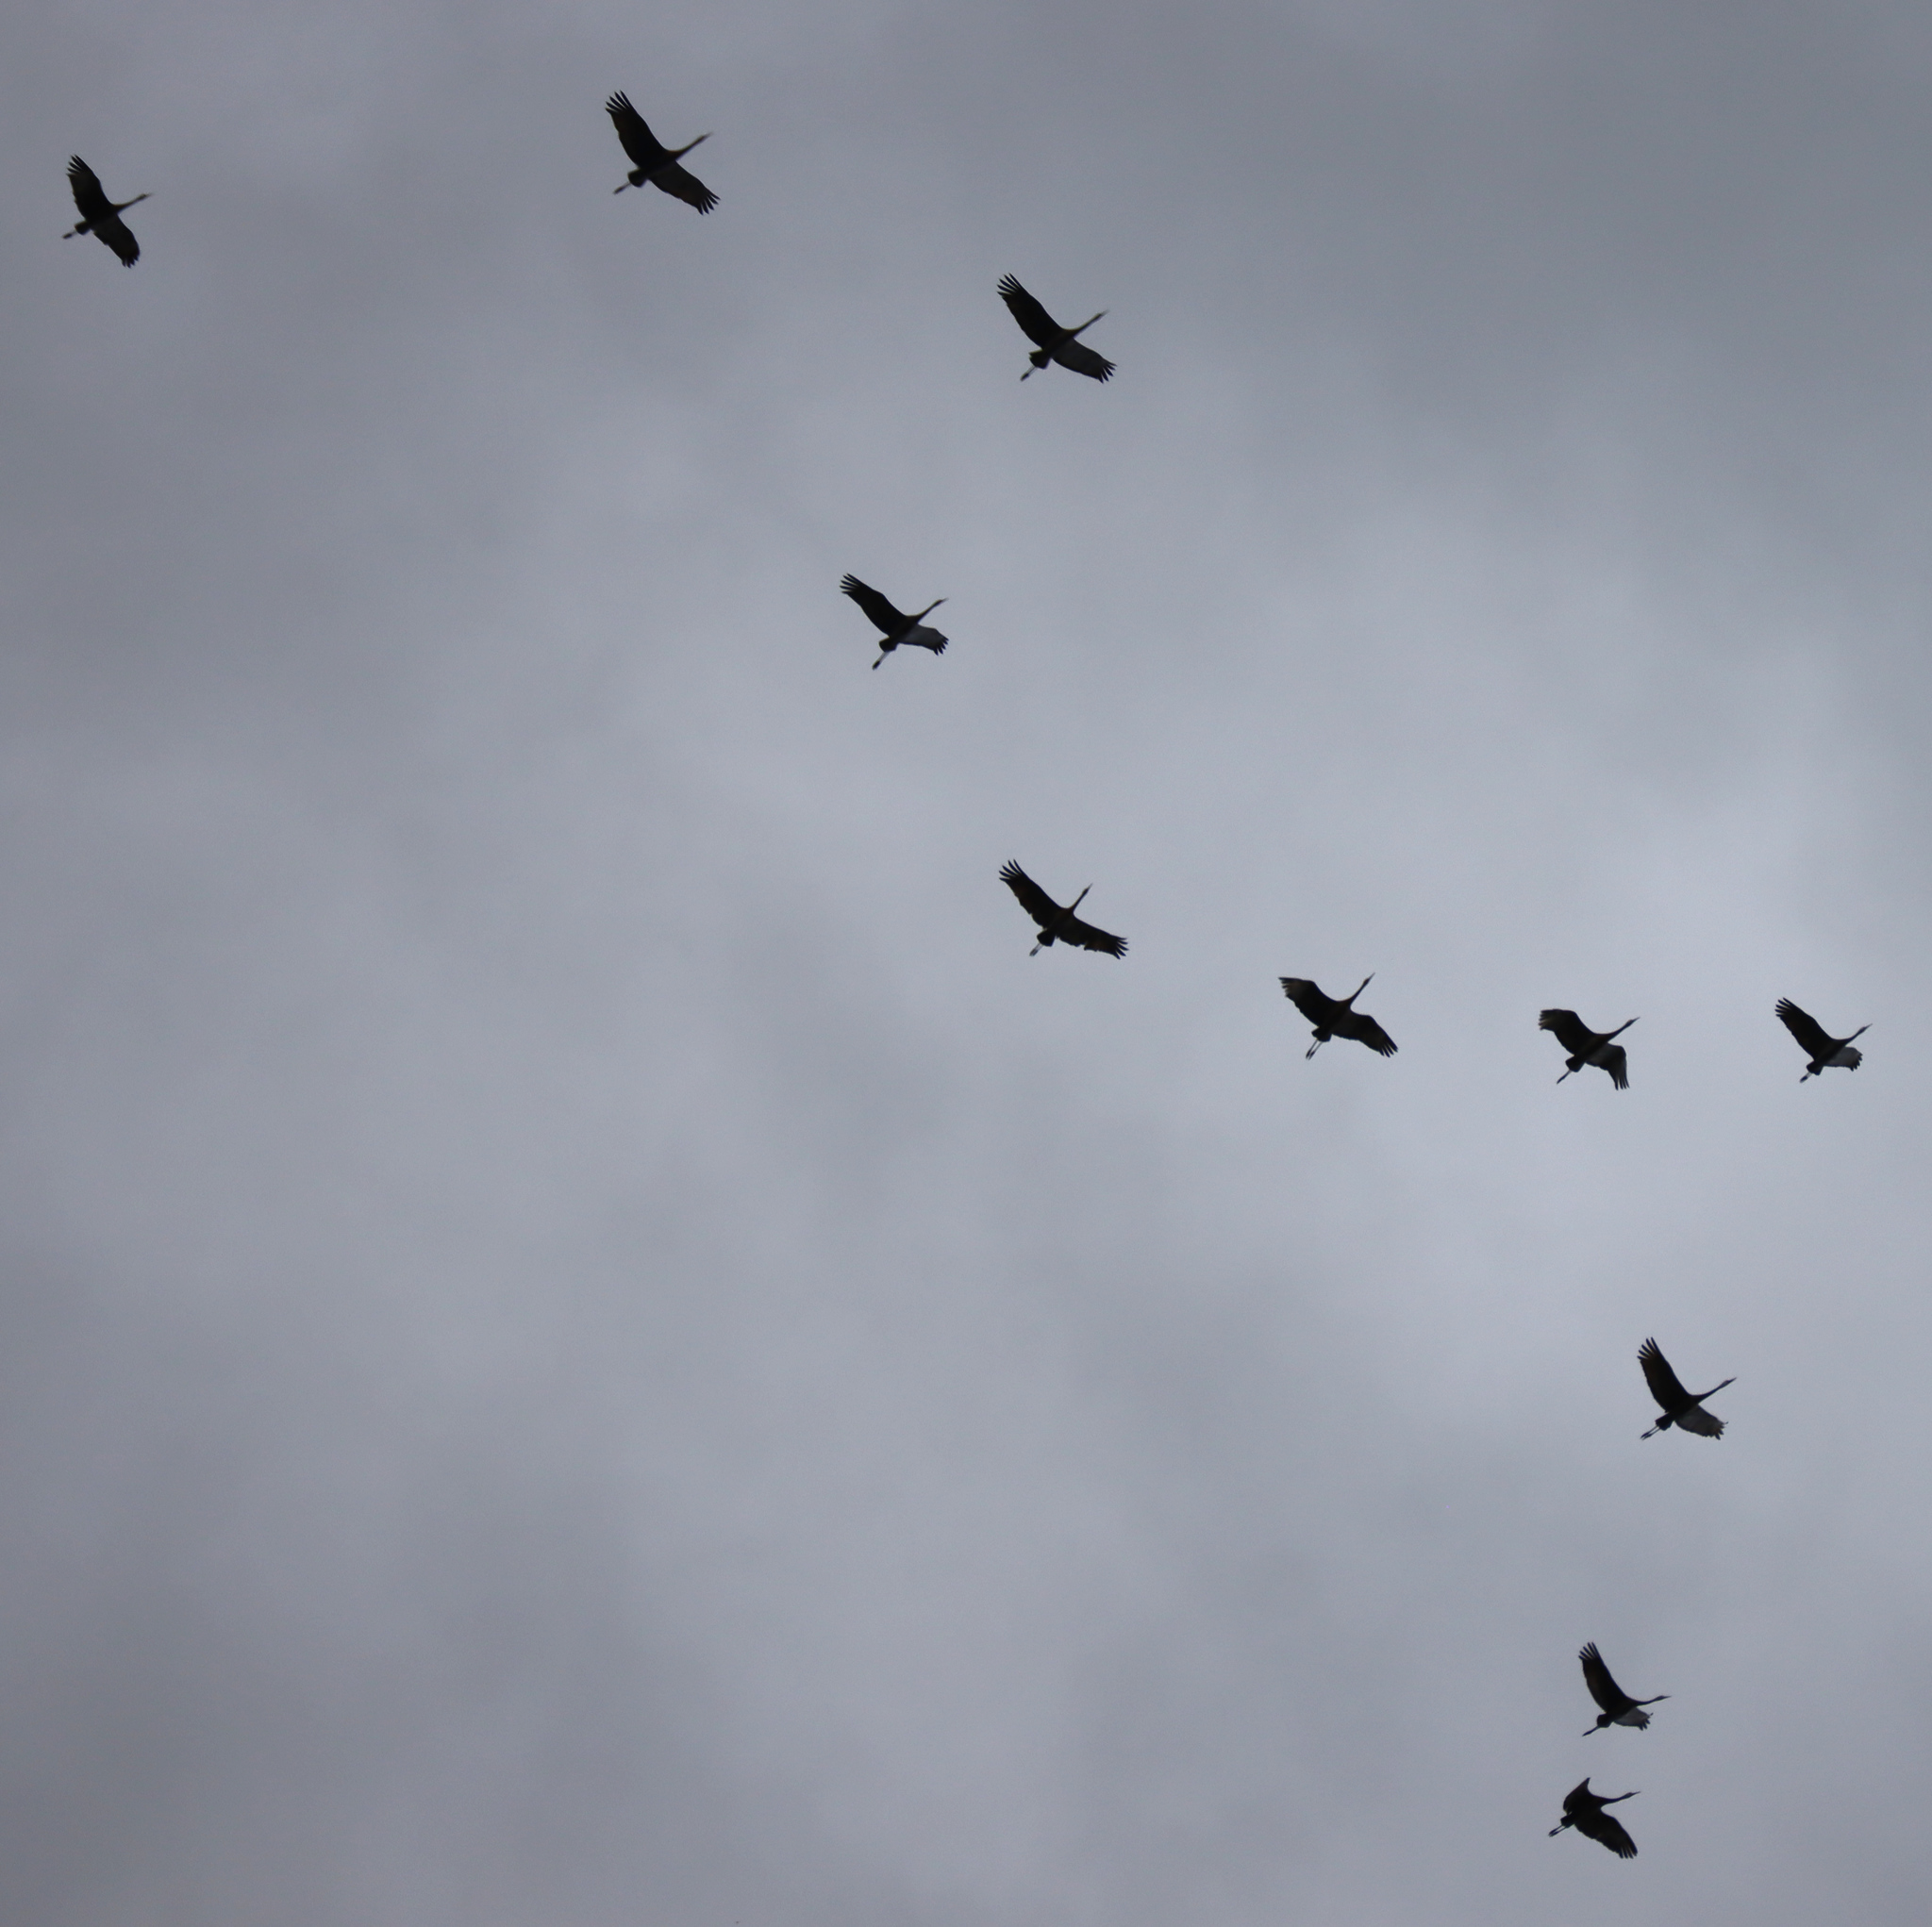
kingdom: Animalia
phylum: Chordata
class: Aves
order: Gruiformes
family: Gruidae
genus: Grus
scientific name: Grus canadensis
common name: Sandhill crane
